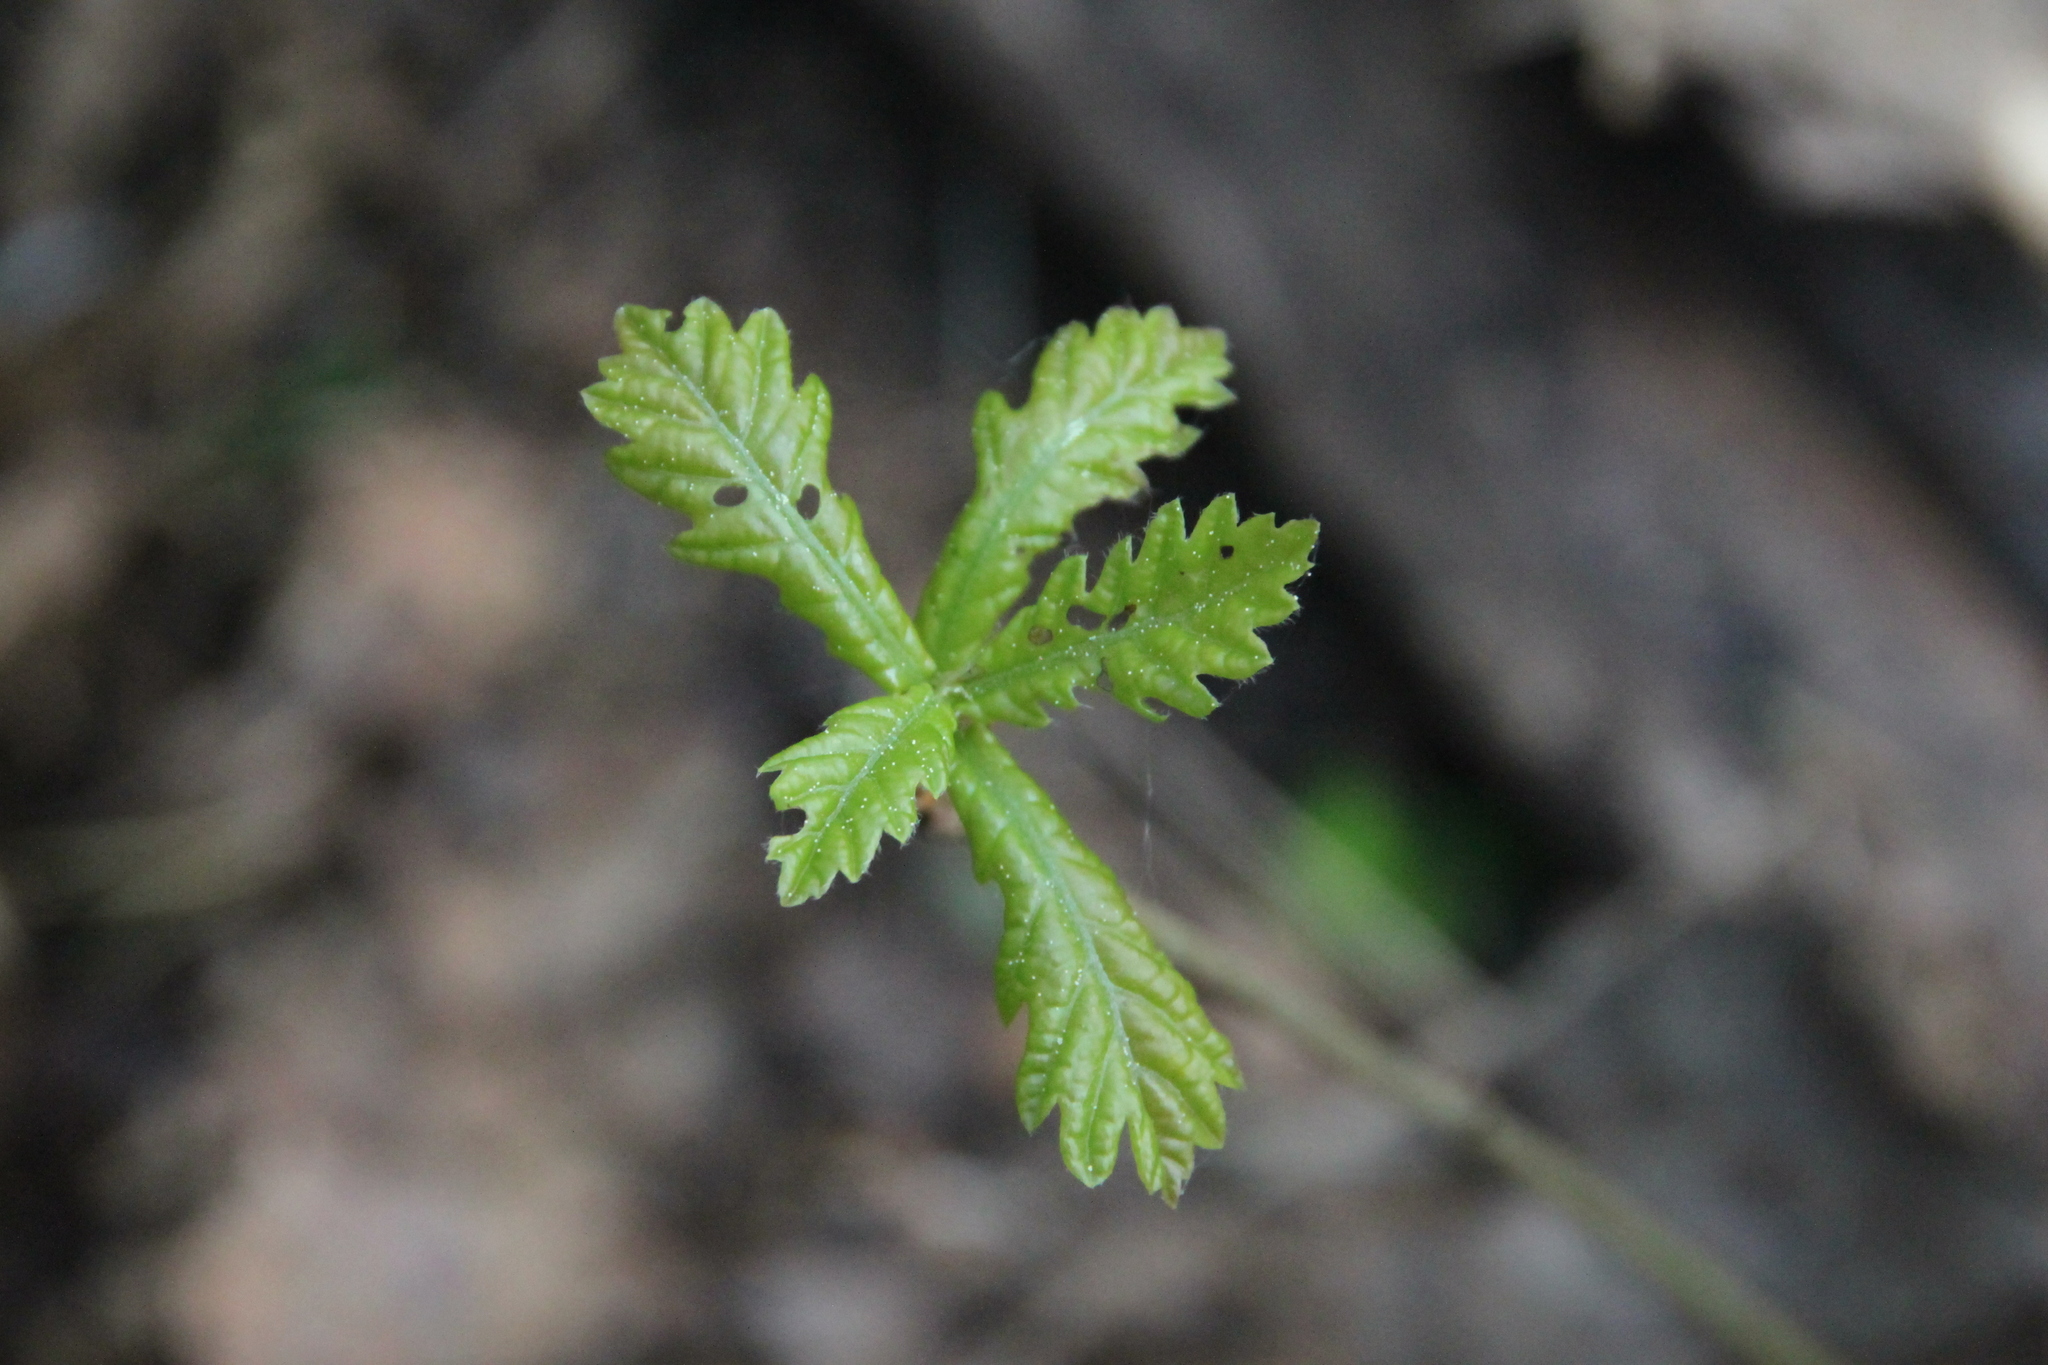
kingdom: Plantae
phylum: Tracheophyta
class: Magnoliopsida
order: Fagales
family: Fagaceae
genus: Quercus
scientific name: Quercus robur
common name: Pedunculate oak
